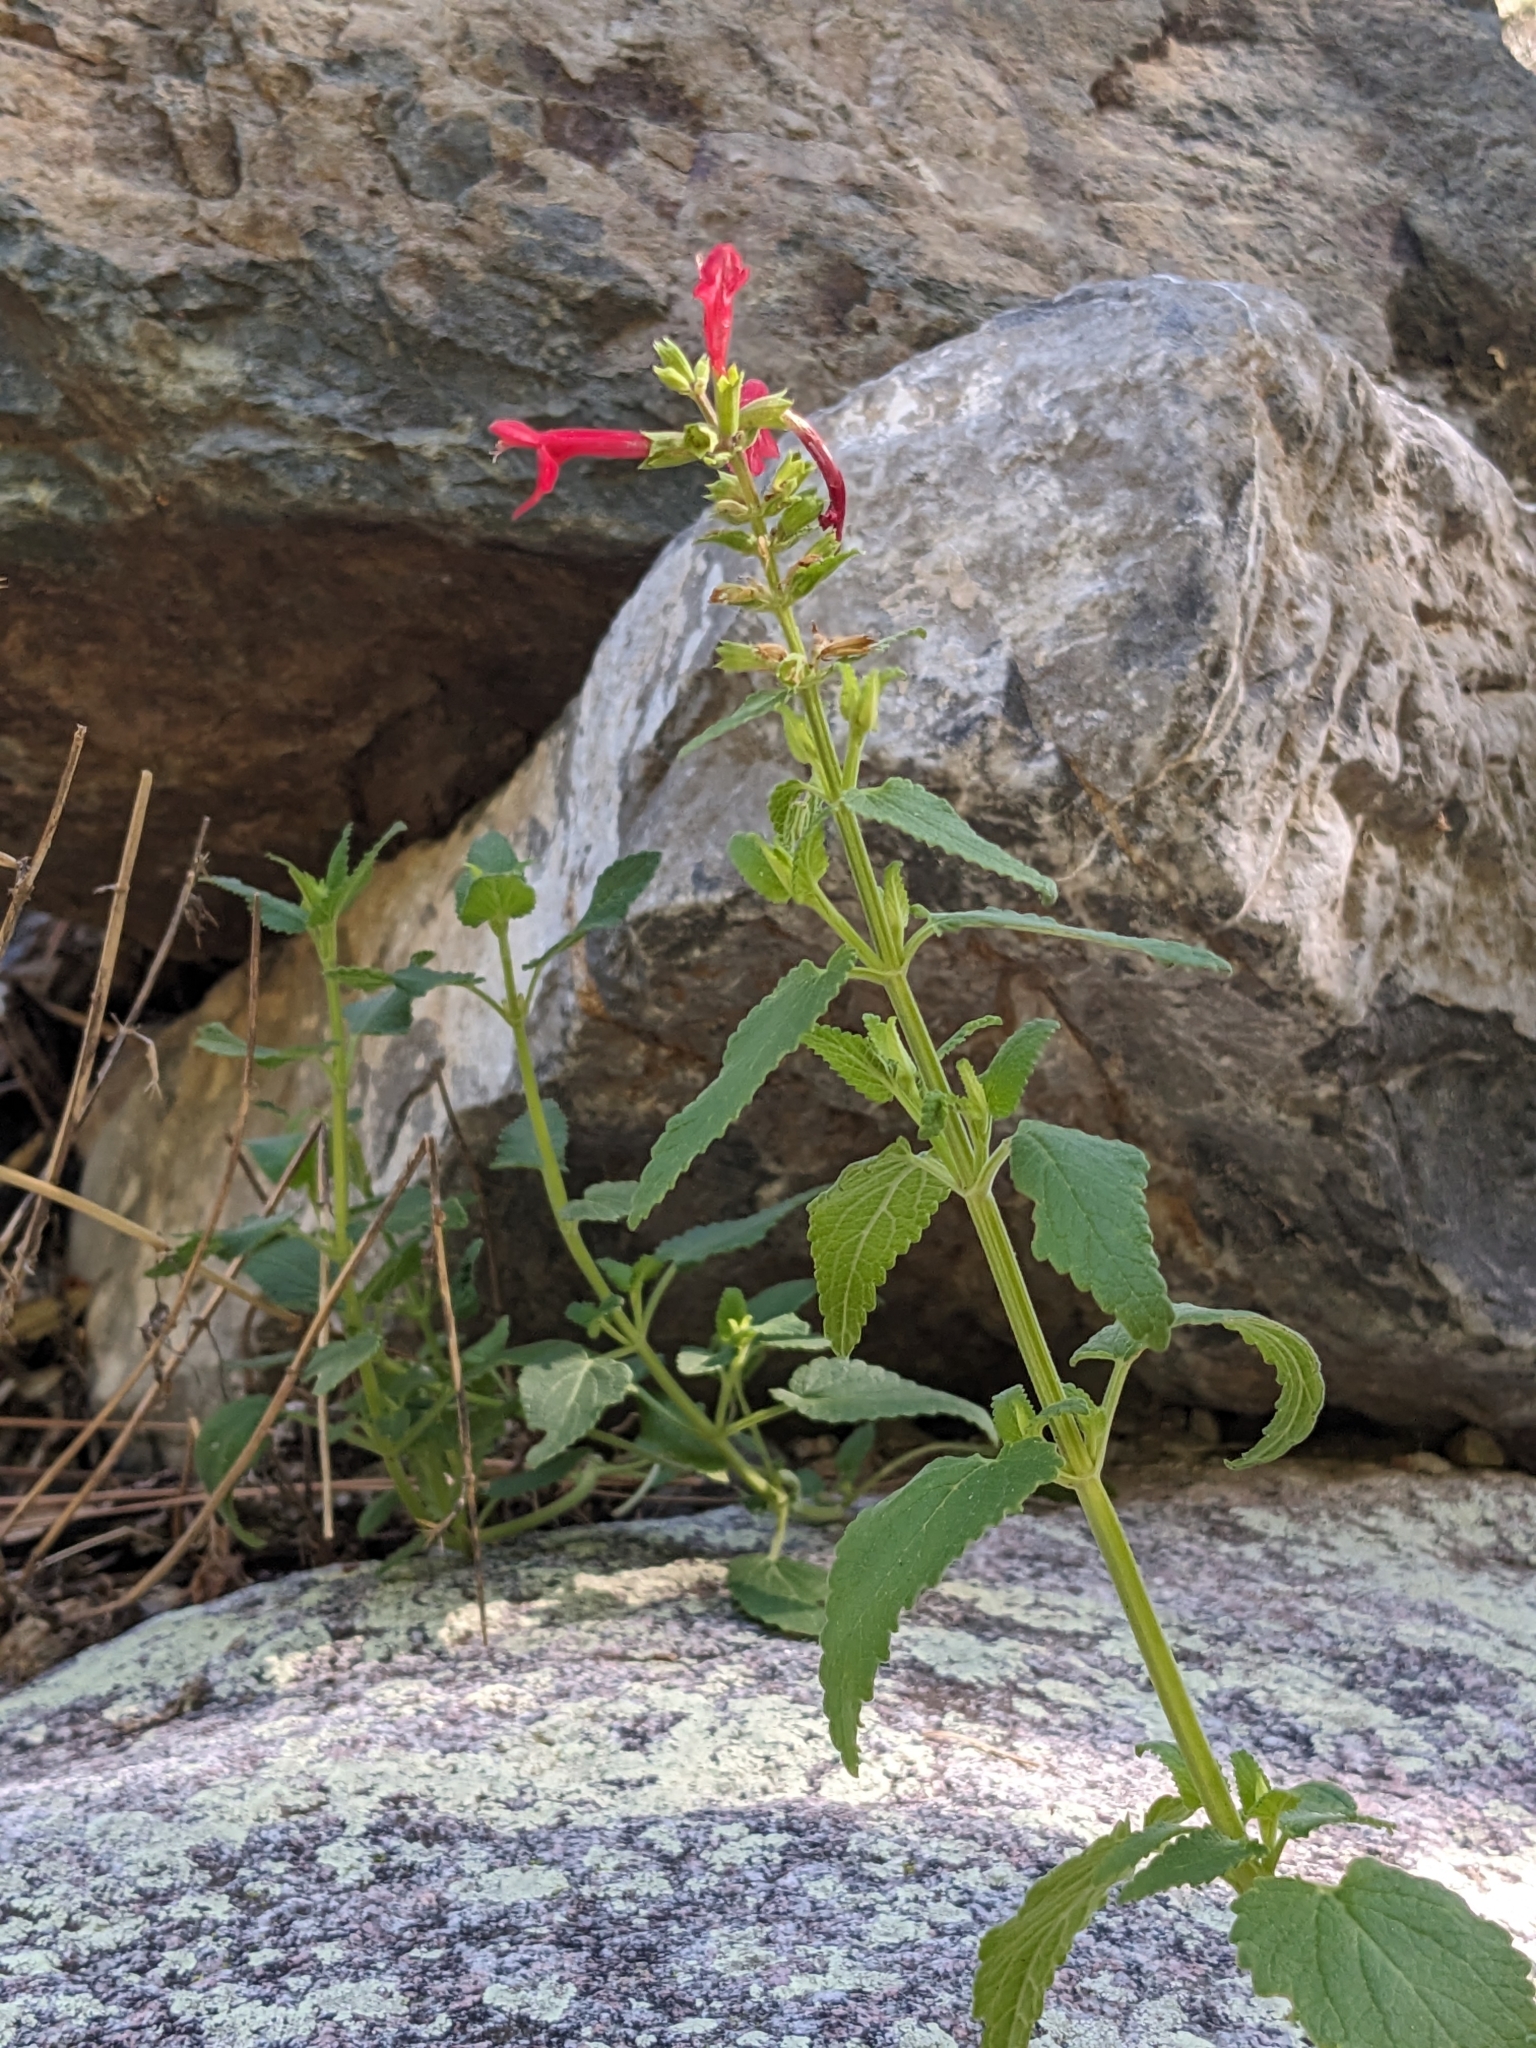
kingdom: Plantae
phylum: Tracheophyta
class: Magnoliopsida
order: Lamiales
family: Lamiaceae
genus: Stachys
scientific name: Stachys coccinea
